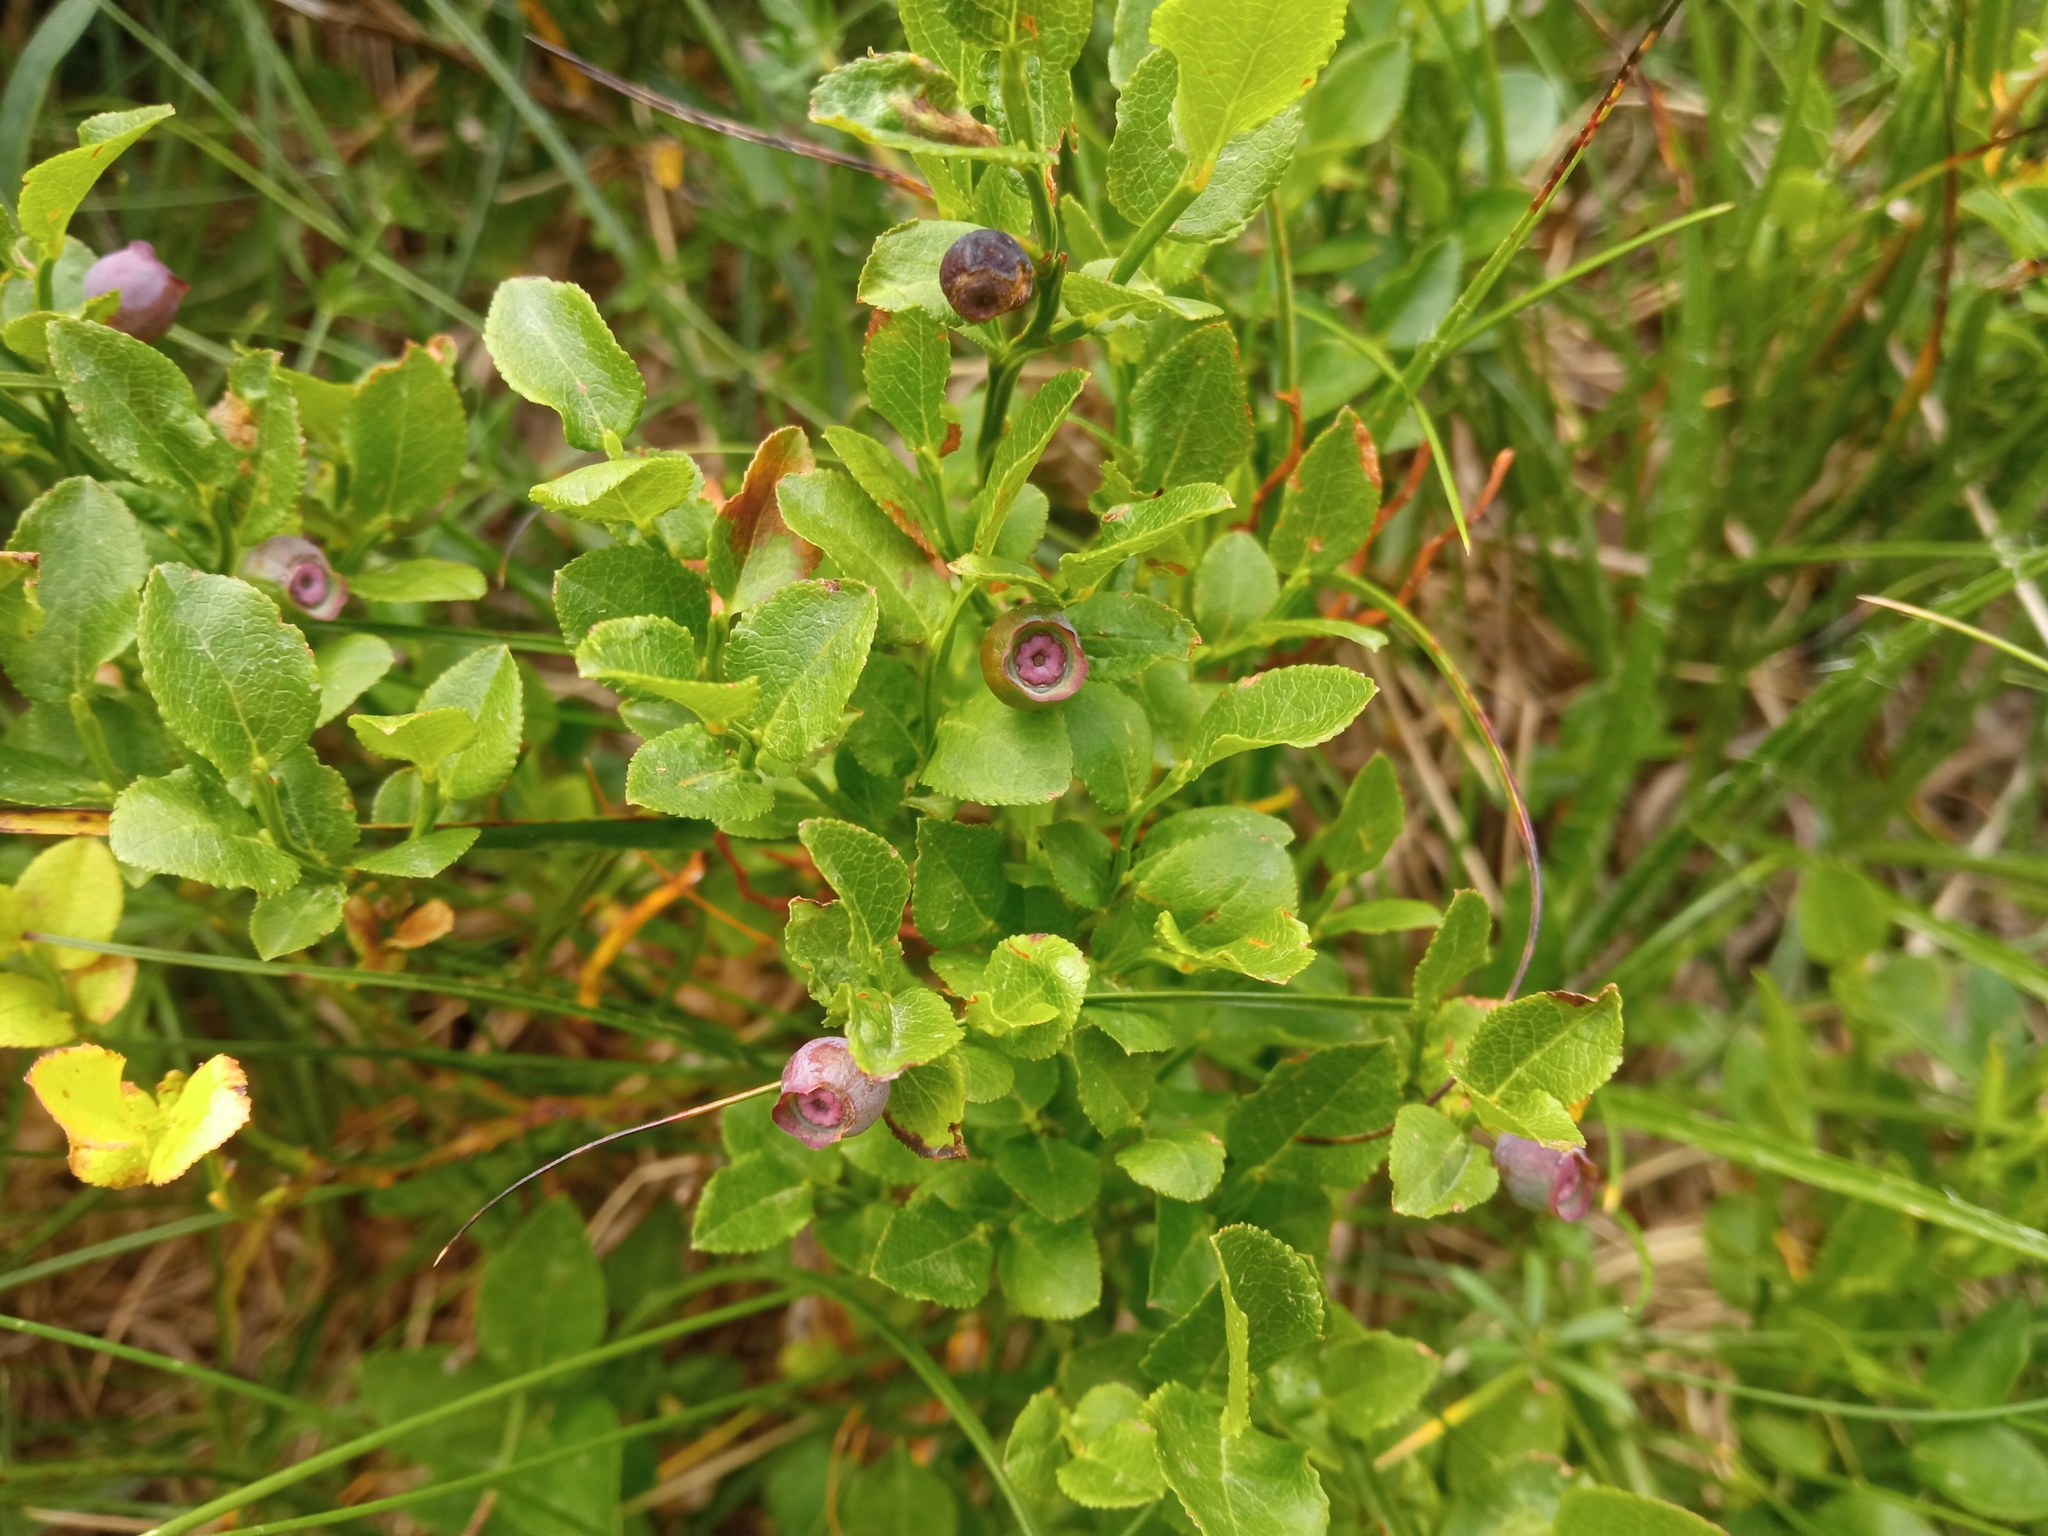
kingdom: Plantae
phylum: Tracheophyta
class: Magnoliopsida
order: Ericales
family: Ericaceae
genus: Vaccinium
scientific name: Vaccinium myrtillus
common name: Bilberry
